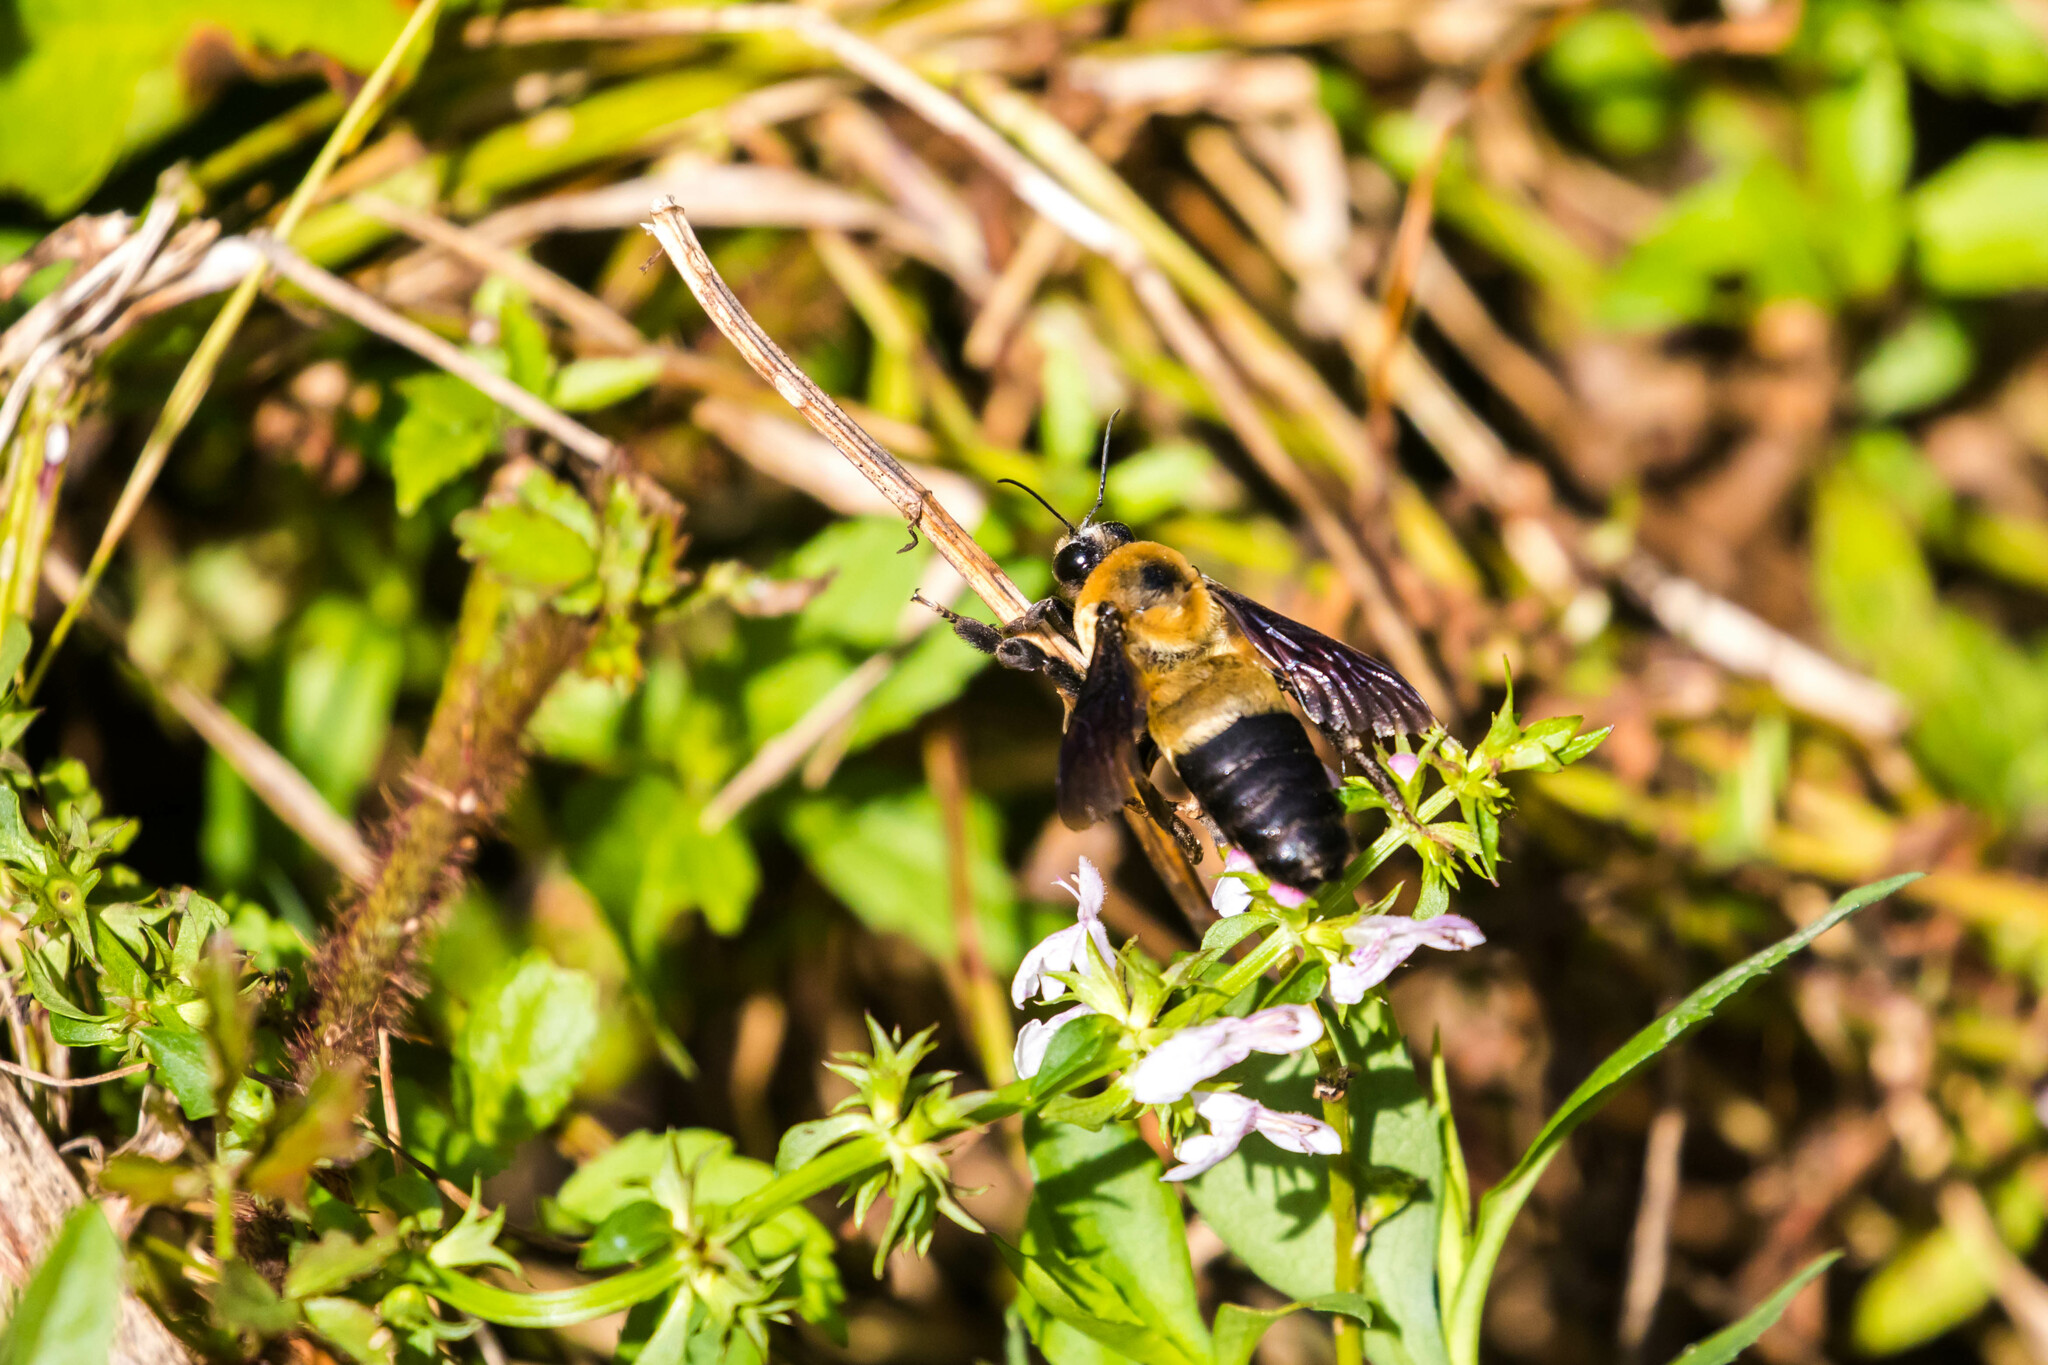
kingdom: Animalia
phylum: Arthropoda
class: Insecta
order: Hymenoptera
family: Apidae
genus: Bombus
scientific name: Bombus fraternus
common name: Southern plains bumble bee
